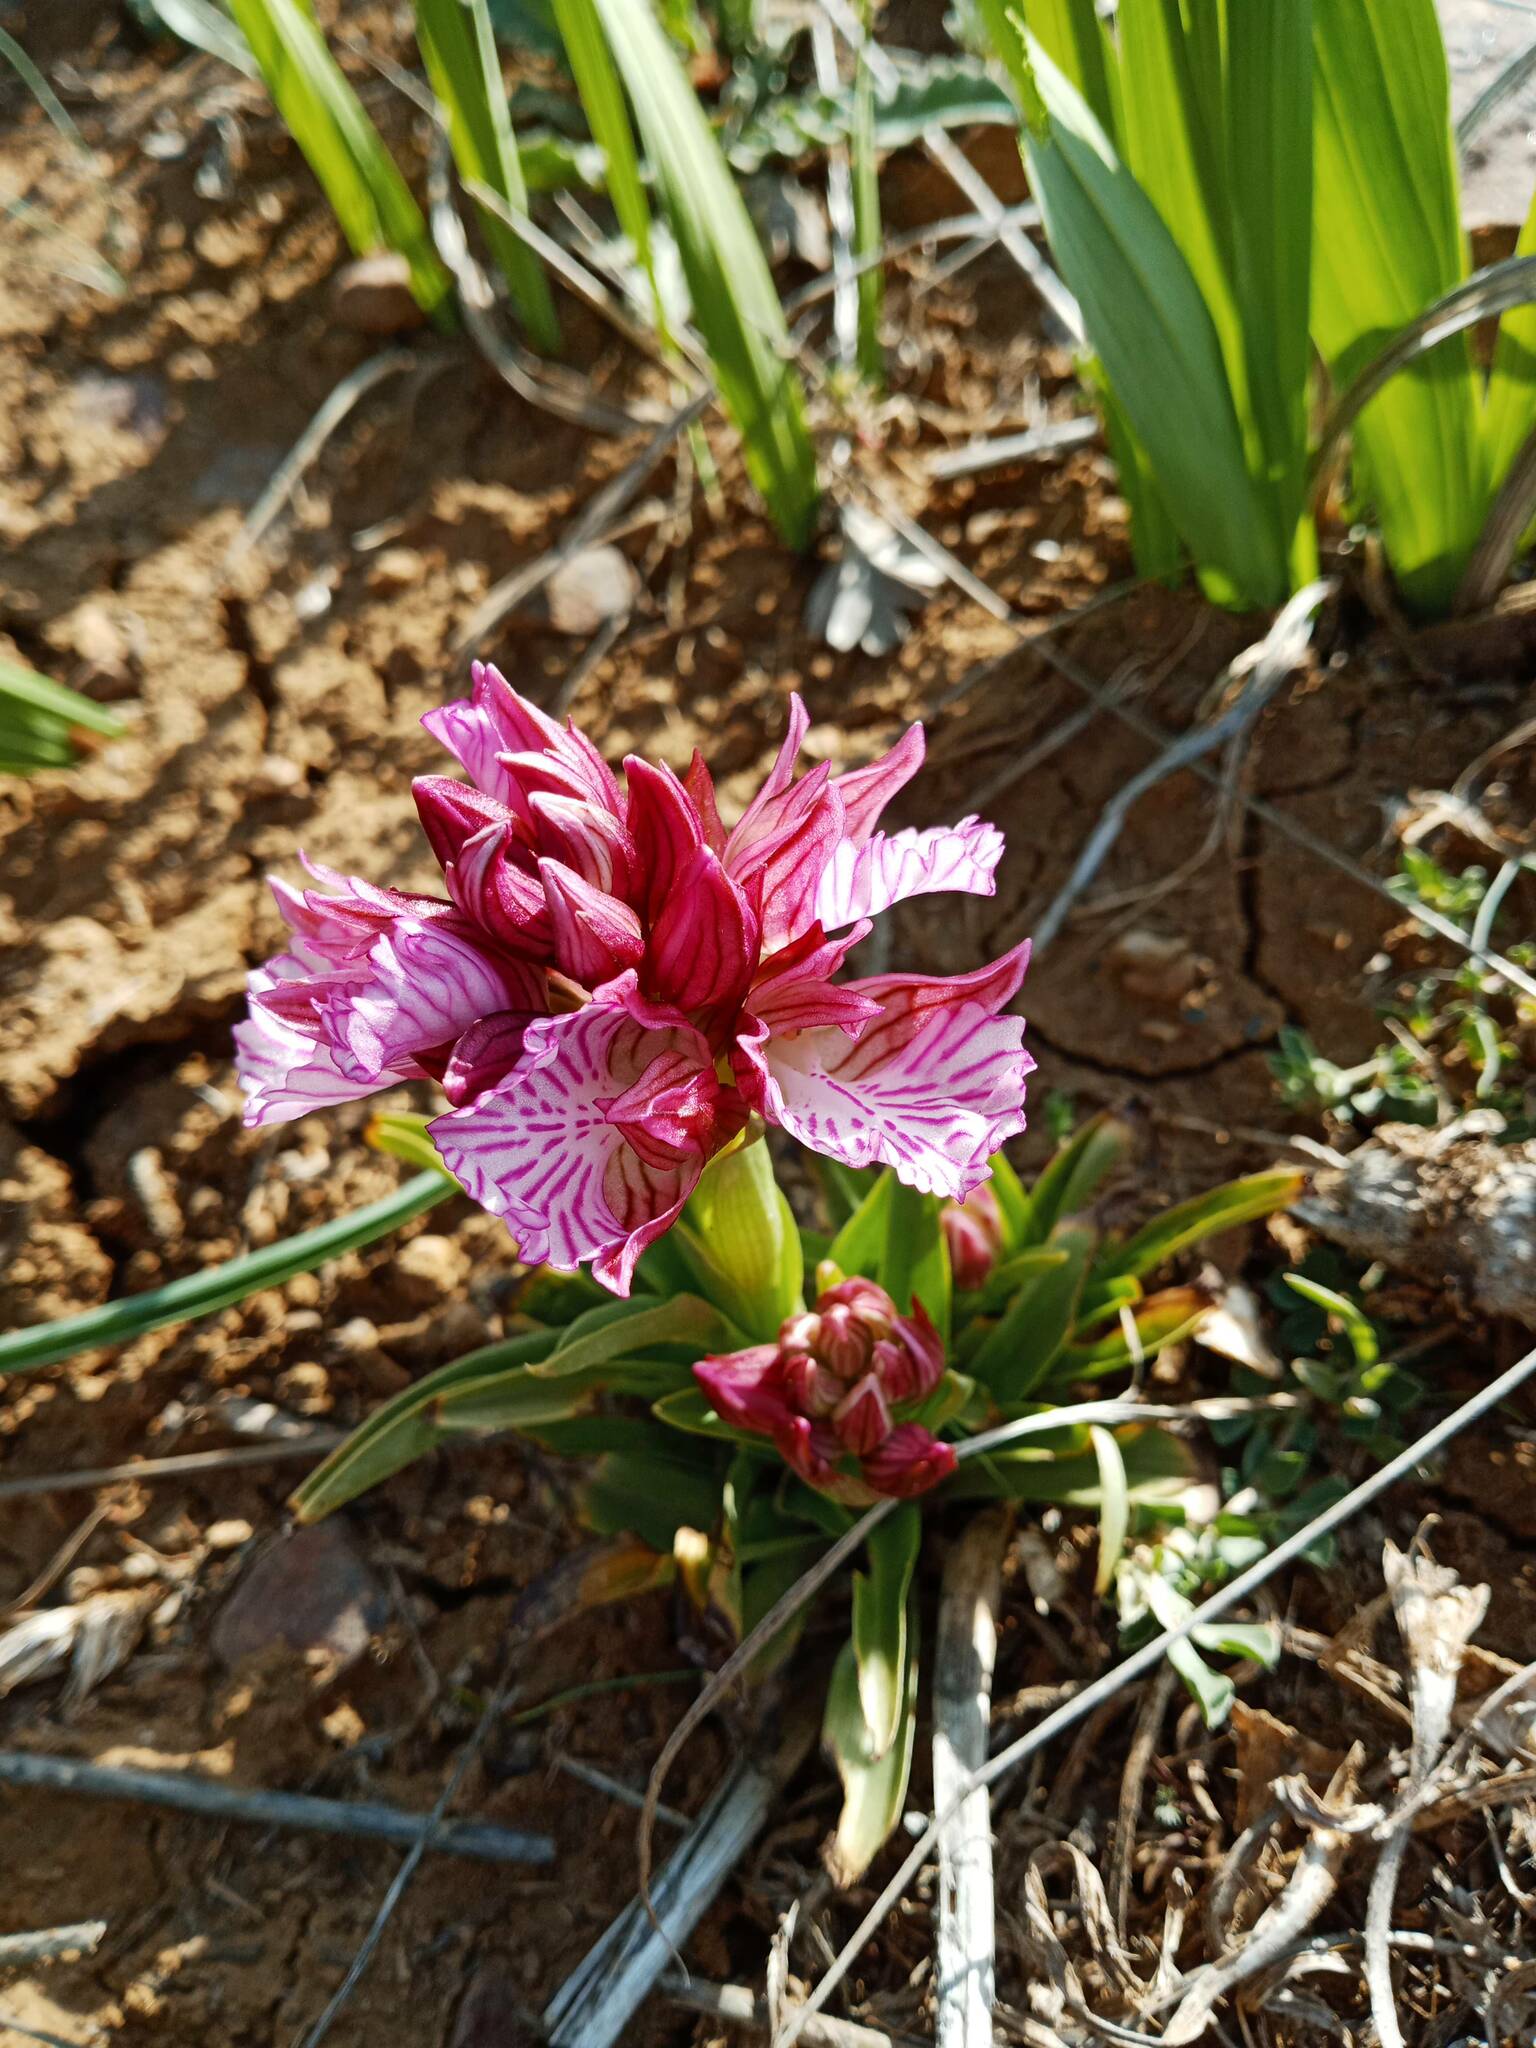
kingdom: Plantae
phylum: Tracheophyta
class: Liliopsida
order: Asparagales
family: Orchidaceae
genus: Anacamptis
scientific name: Anacamptis papilionacea
